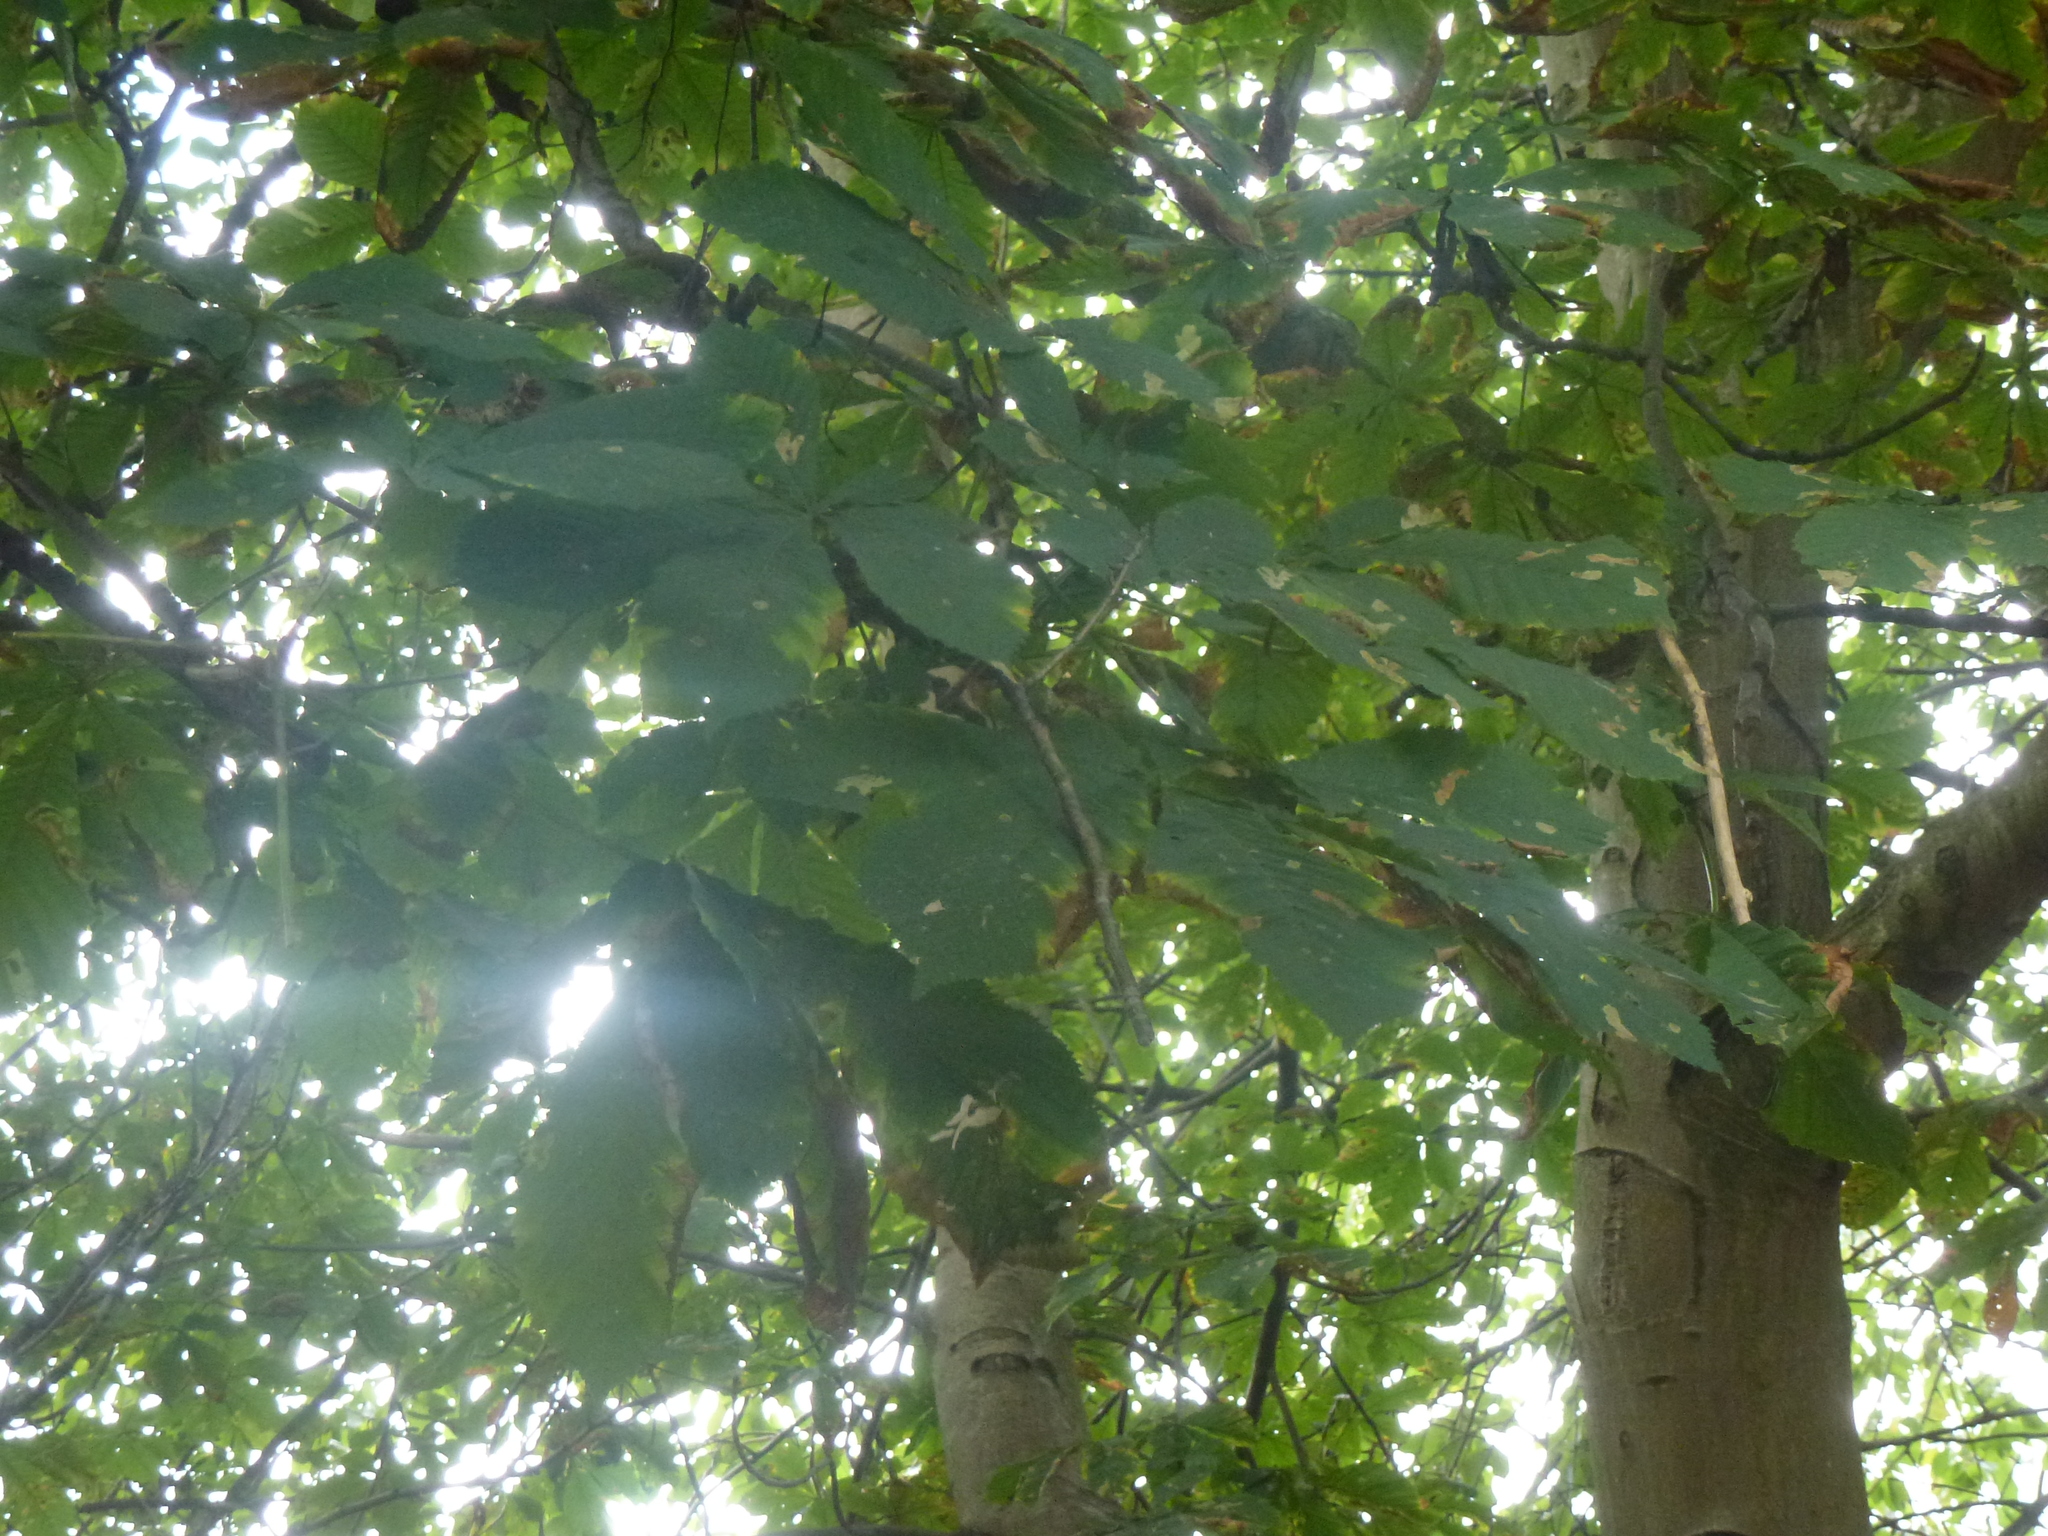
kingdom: Plantae
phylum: Tracheophyta
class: Magnoliopsida
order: Sapindales
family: Sapindaceae
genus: Aesculus
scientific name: Aesculus hippocastanum
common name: Horse-chestnut
